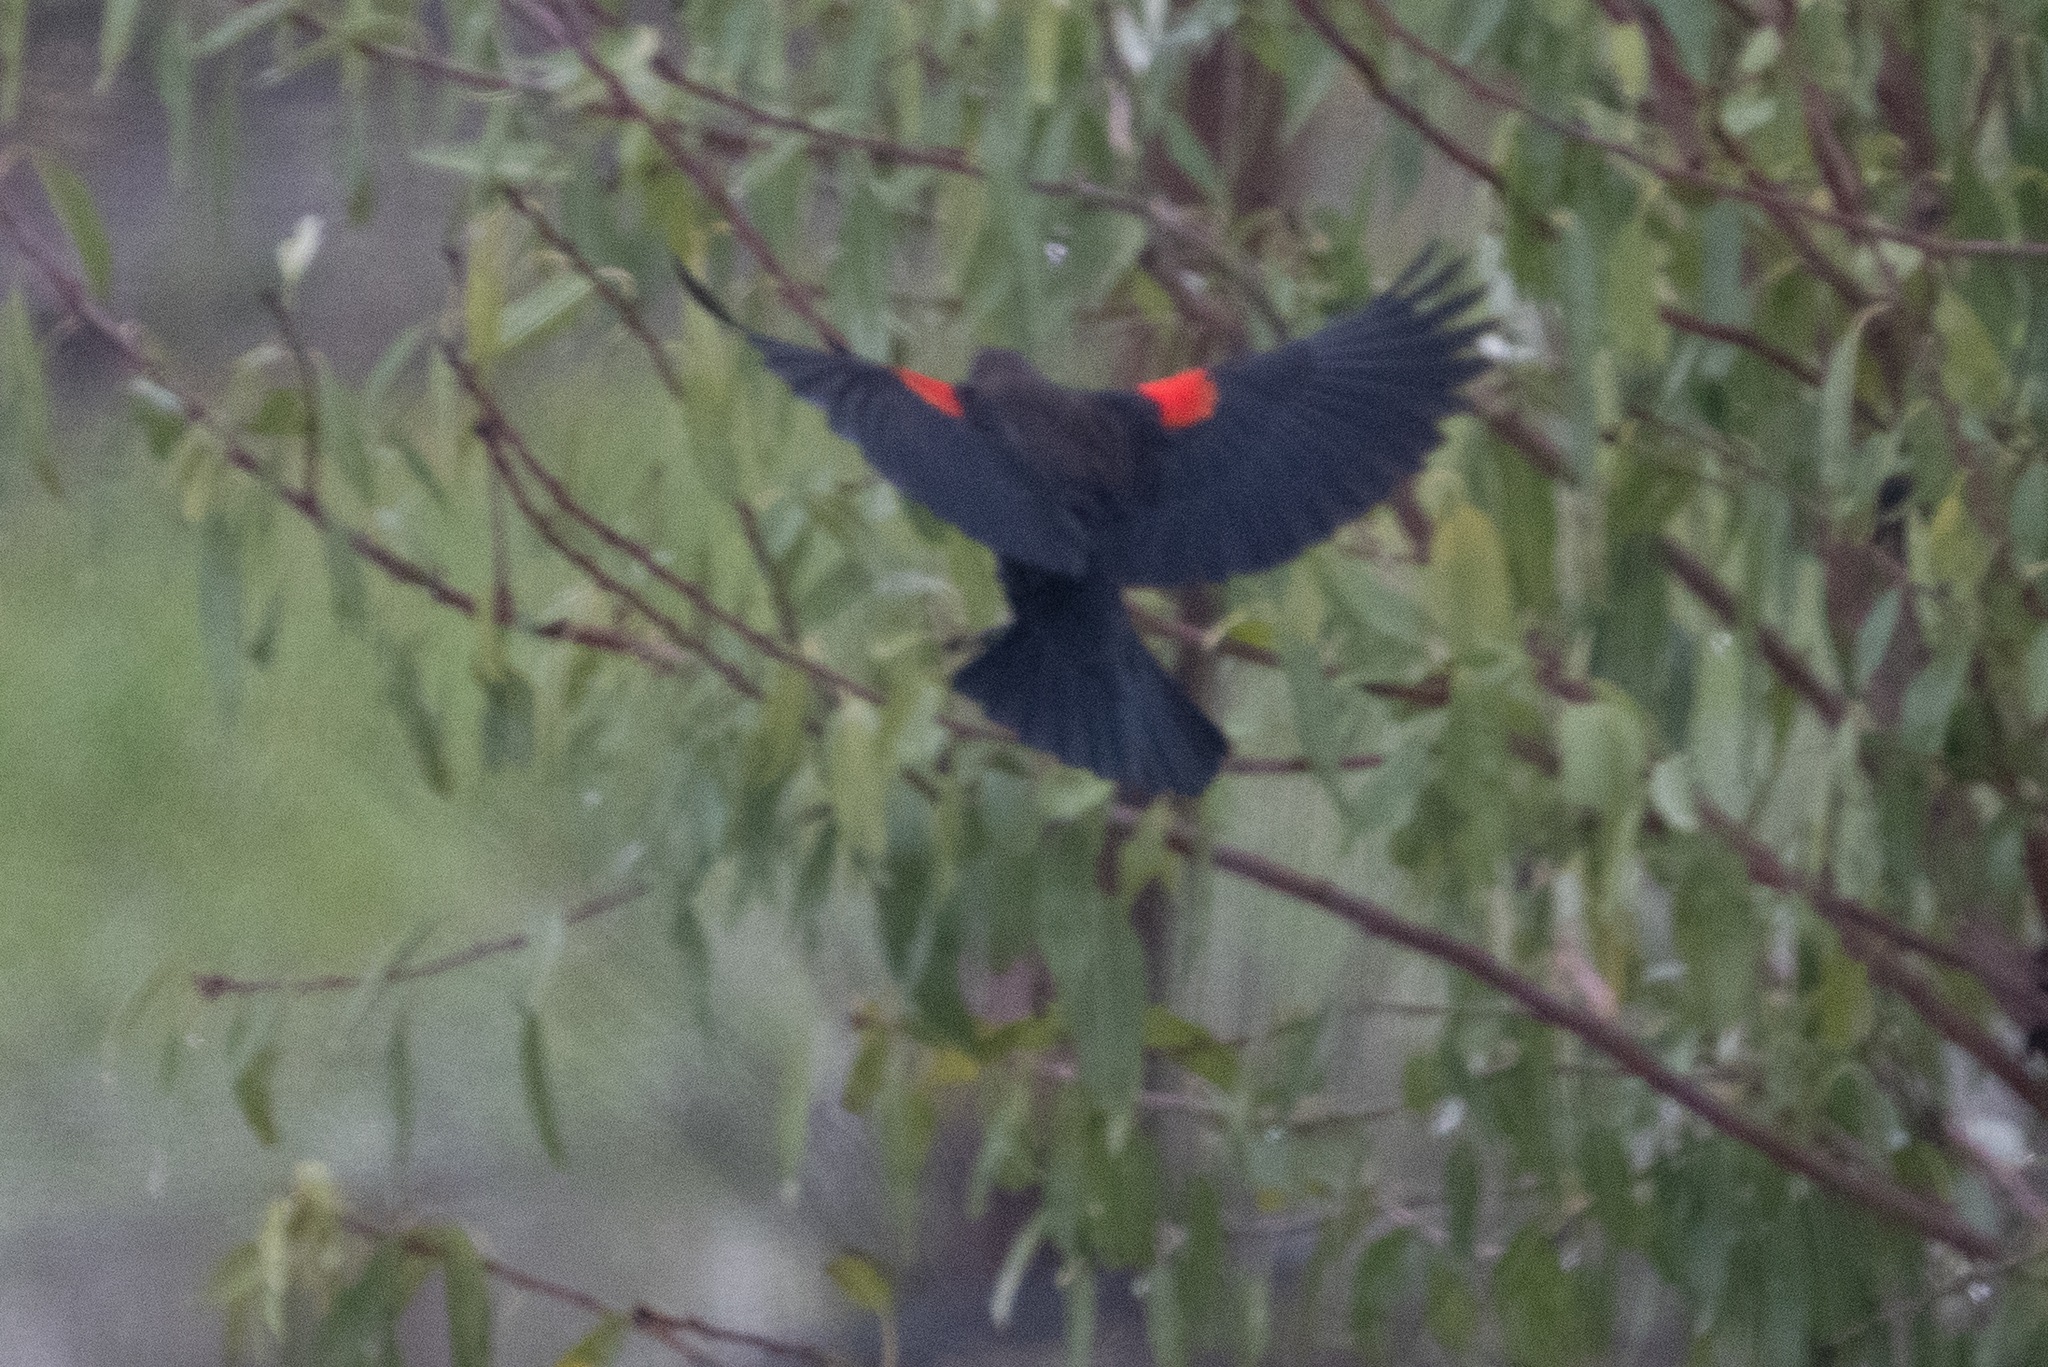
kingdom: Animalia
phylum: Chordata
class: Aves
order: Passeriformes
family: Icteridae
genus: Agelaius
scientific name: Agelaius phoeniceus
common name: Red-winged blackbird
